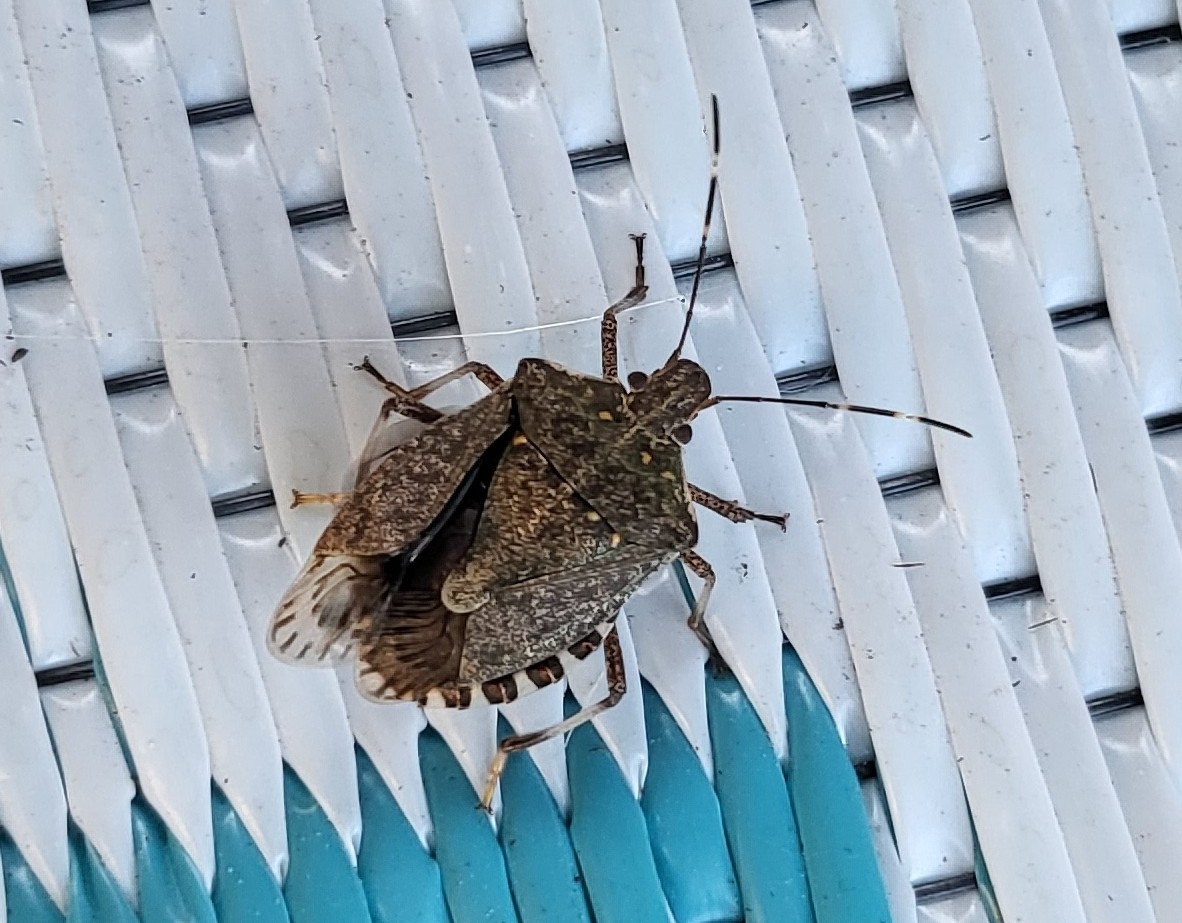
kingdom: Animalia
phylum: Arthropoda
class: Insecta
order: Hemiptera
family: Pentatomidae
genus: Halyomorpha
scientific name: Halyomorpha halys
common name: Brown marmorated stink bug
